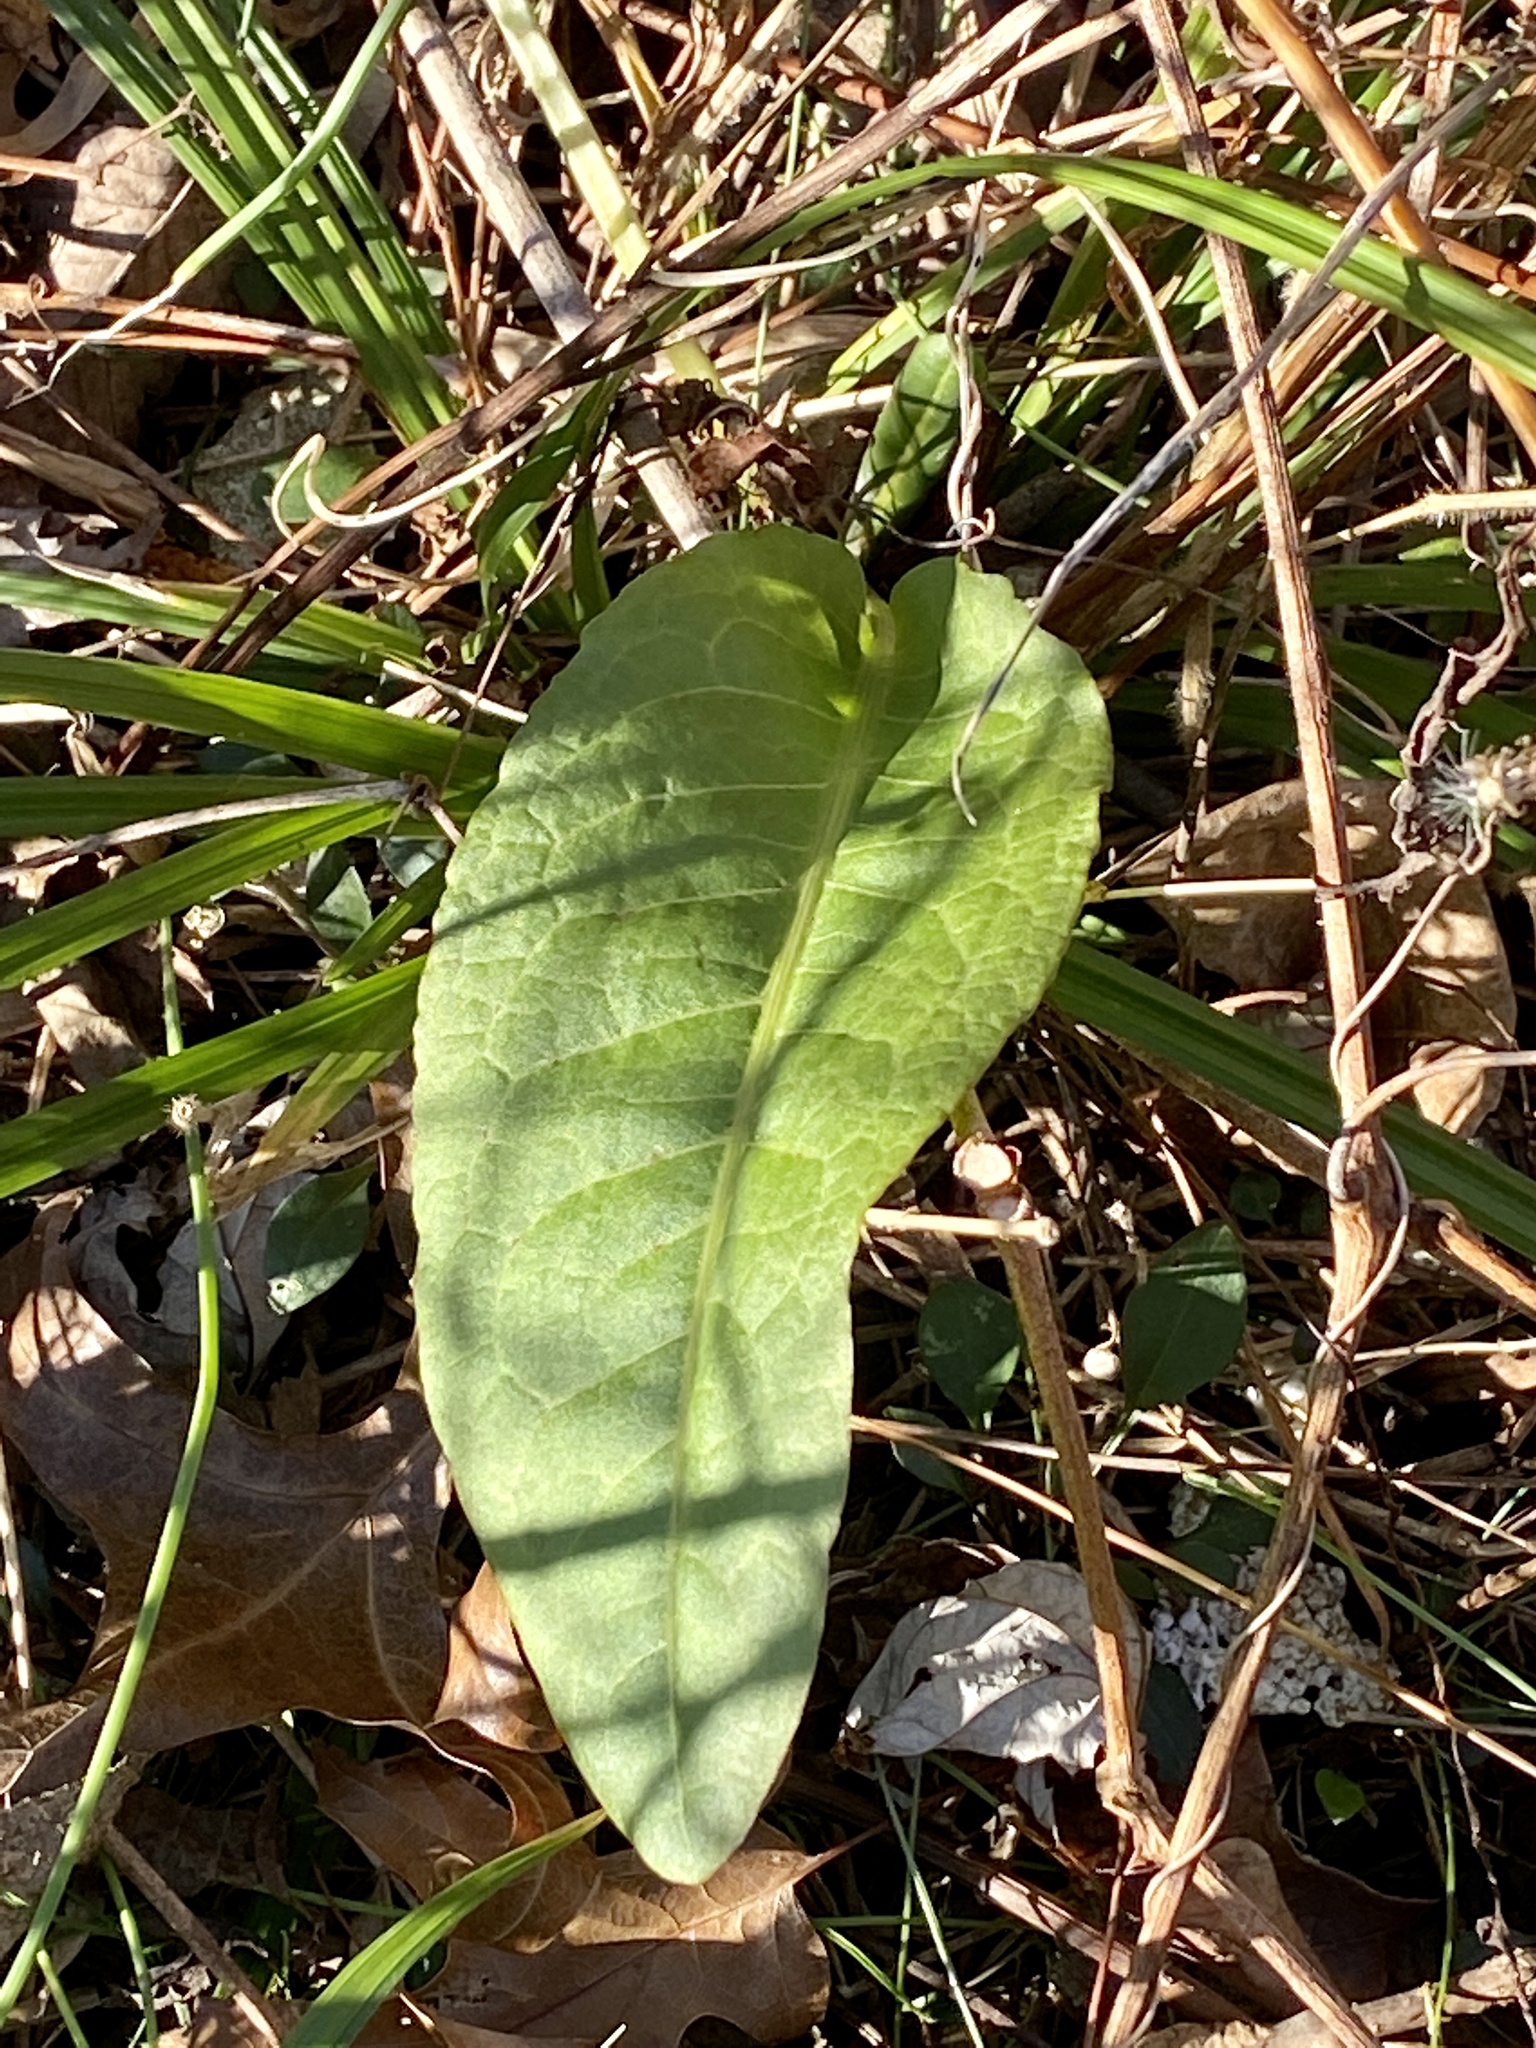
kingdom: Plantae
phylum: Tracheophyta
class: Magnoliopsida
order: Caryophyllales
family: Polygonaceae
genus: Rumex
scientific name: Rumex obtusifolius
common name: Bitter dock
